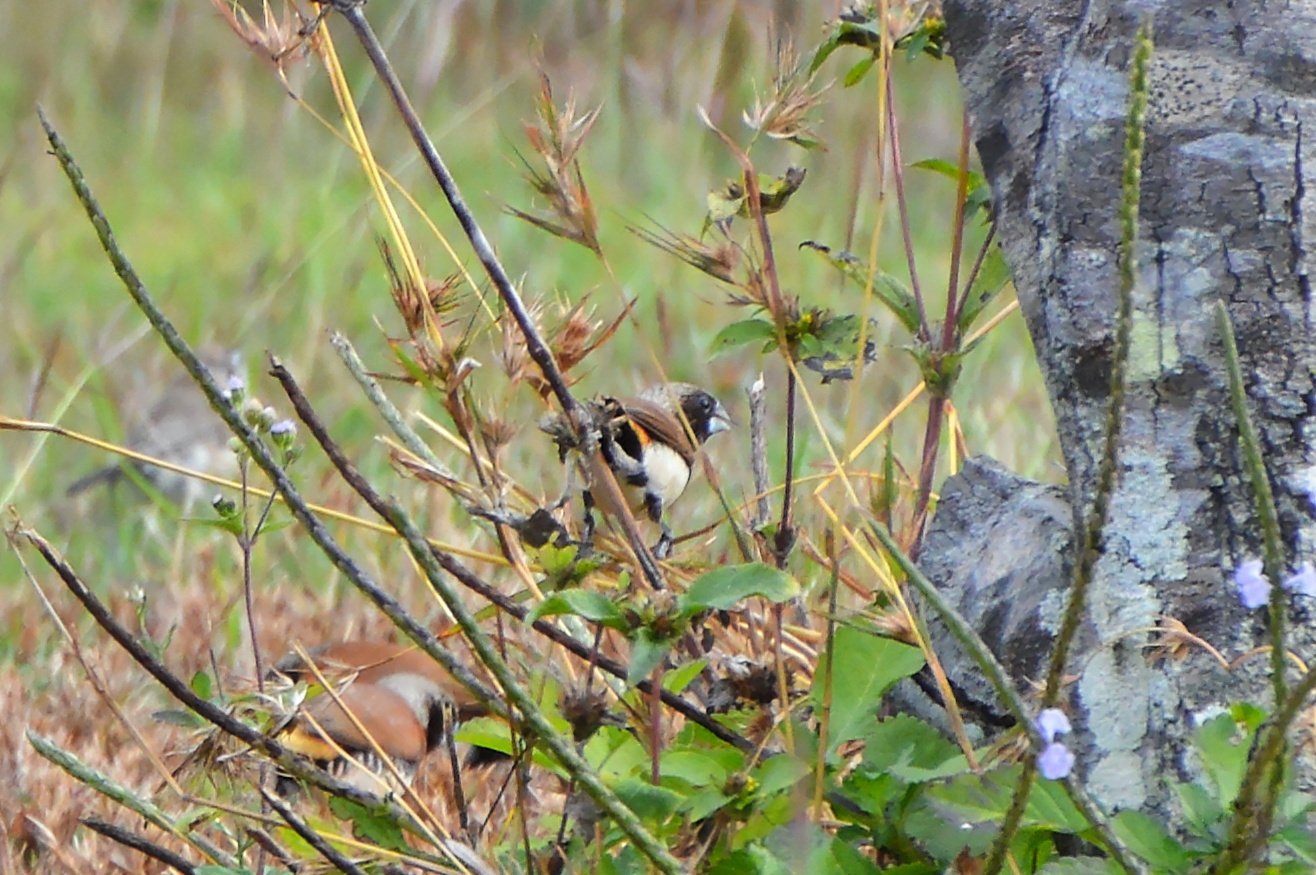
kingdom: Animalia
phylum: Chordata
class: Aves
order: Passeriformes
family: Estrildidae
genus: Lonchura
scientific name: Lonchura castaneothorax
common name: Chestnut-breasted mannikin
